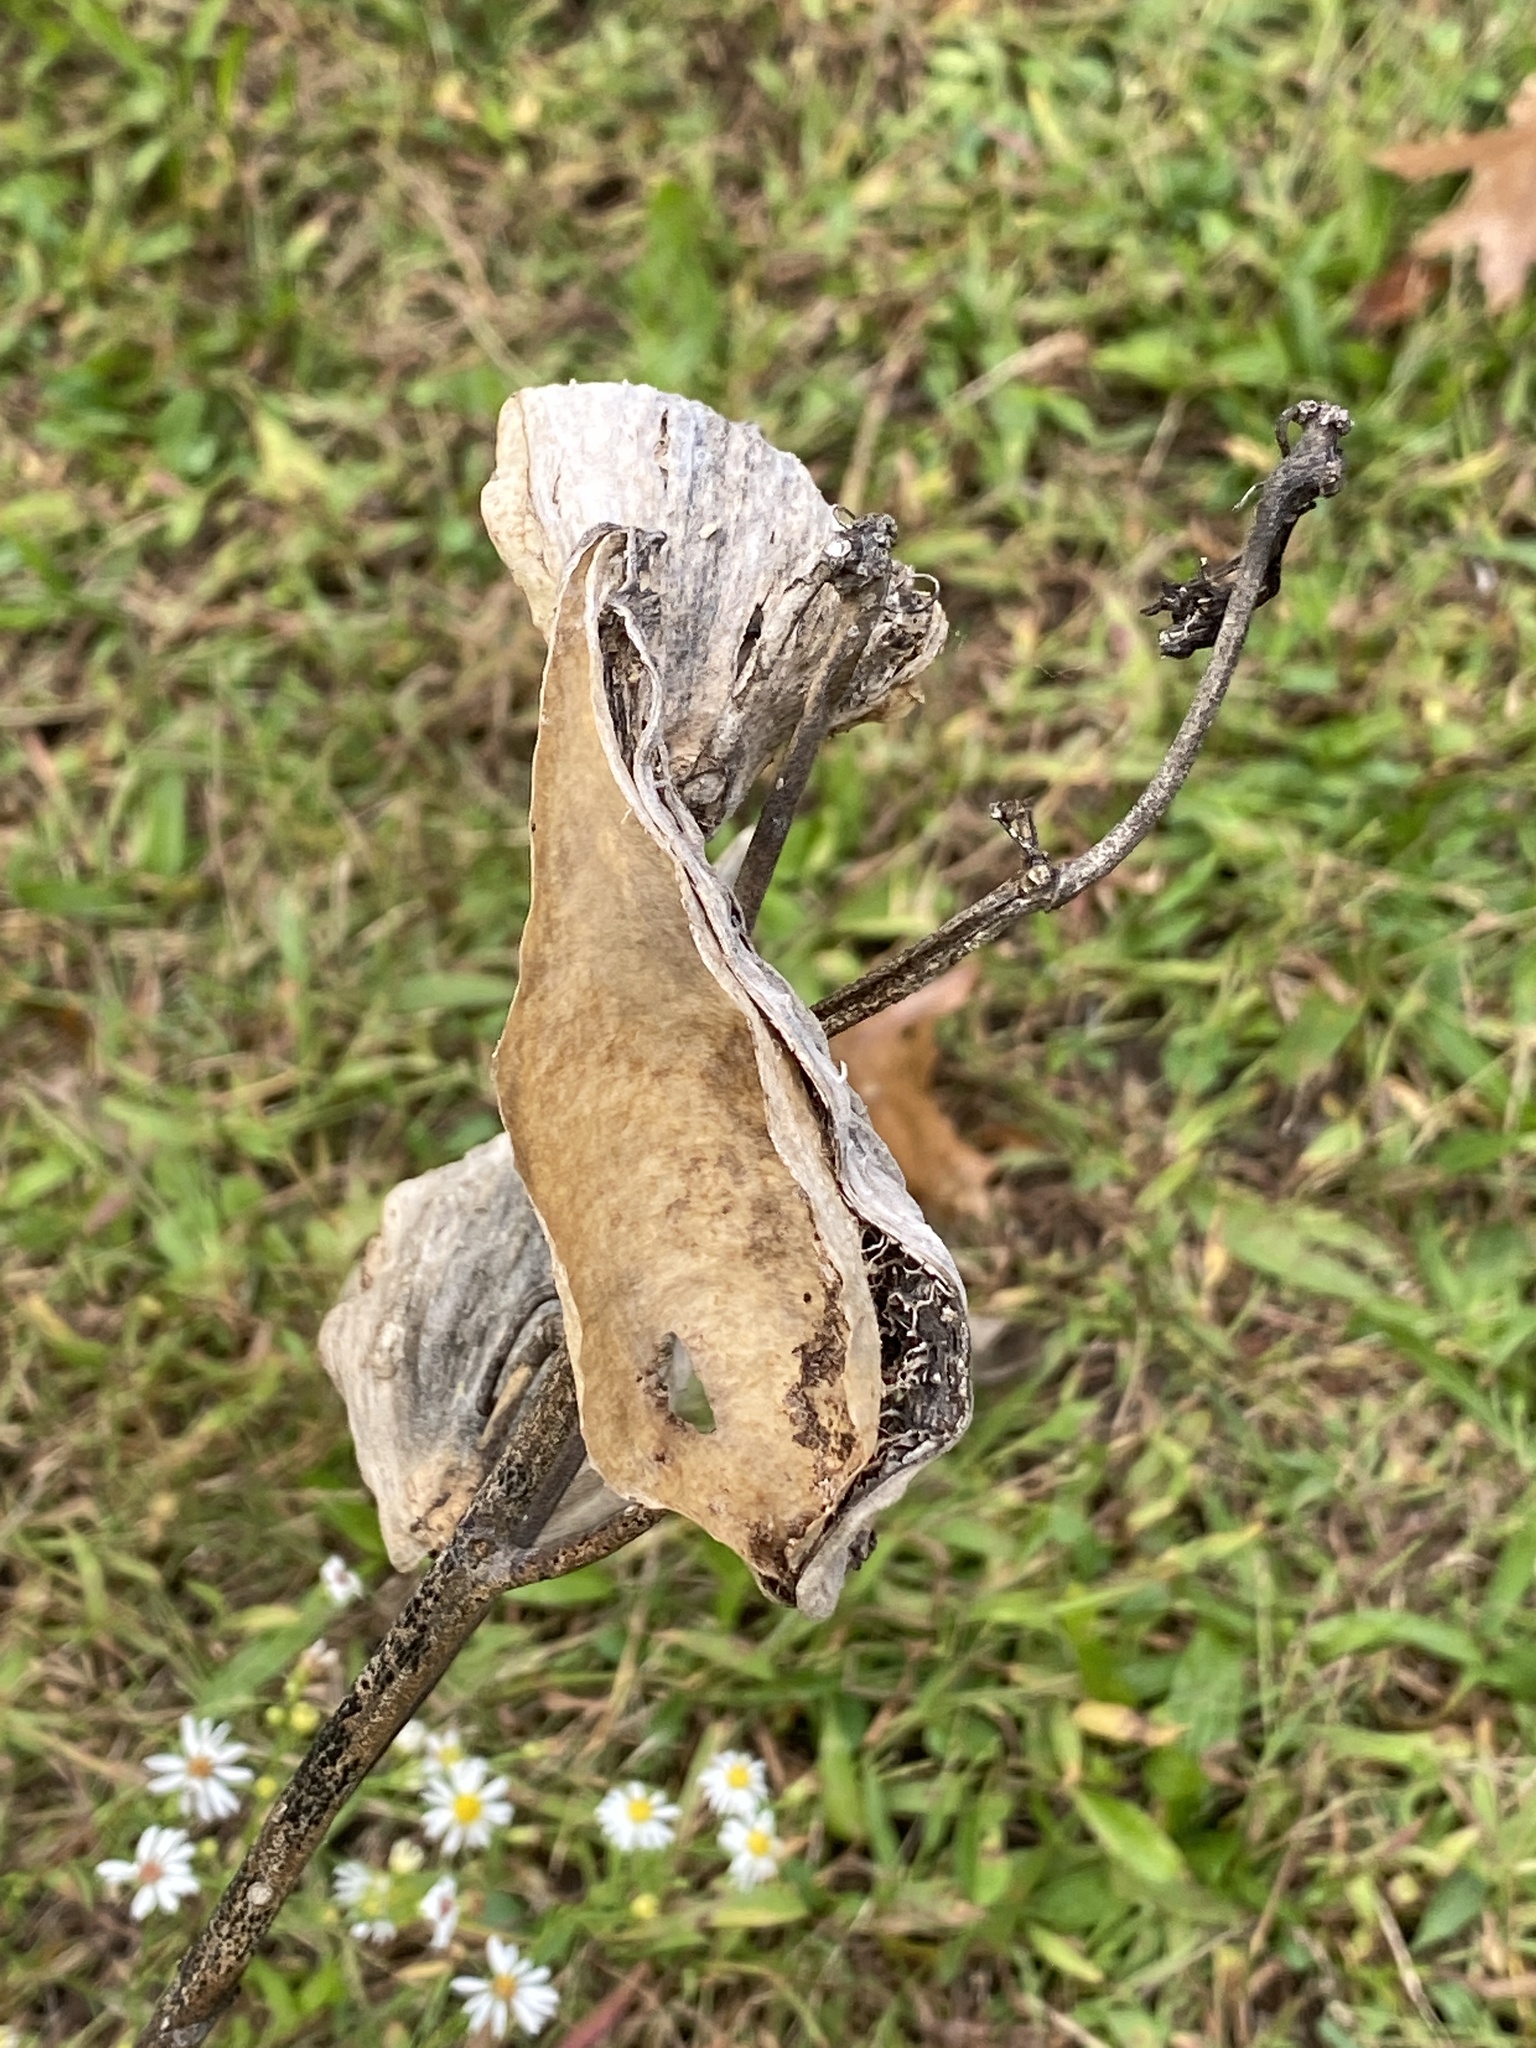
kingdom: Plantae
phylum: Tracheophyta
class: Magnoliopsida
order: Gentianales
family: Apocynaceae
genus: Asclepias
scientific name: Asclepias syriaca
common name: Common milkweed
